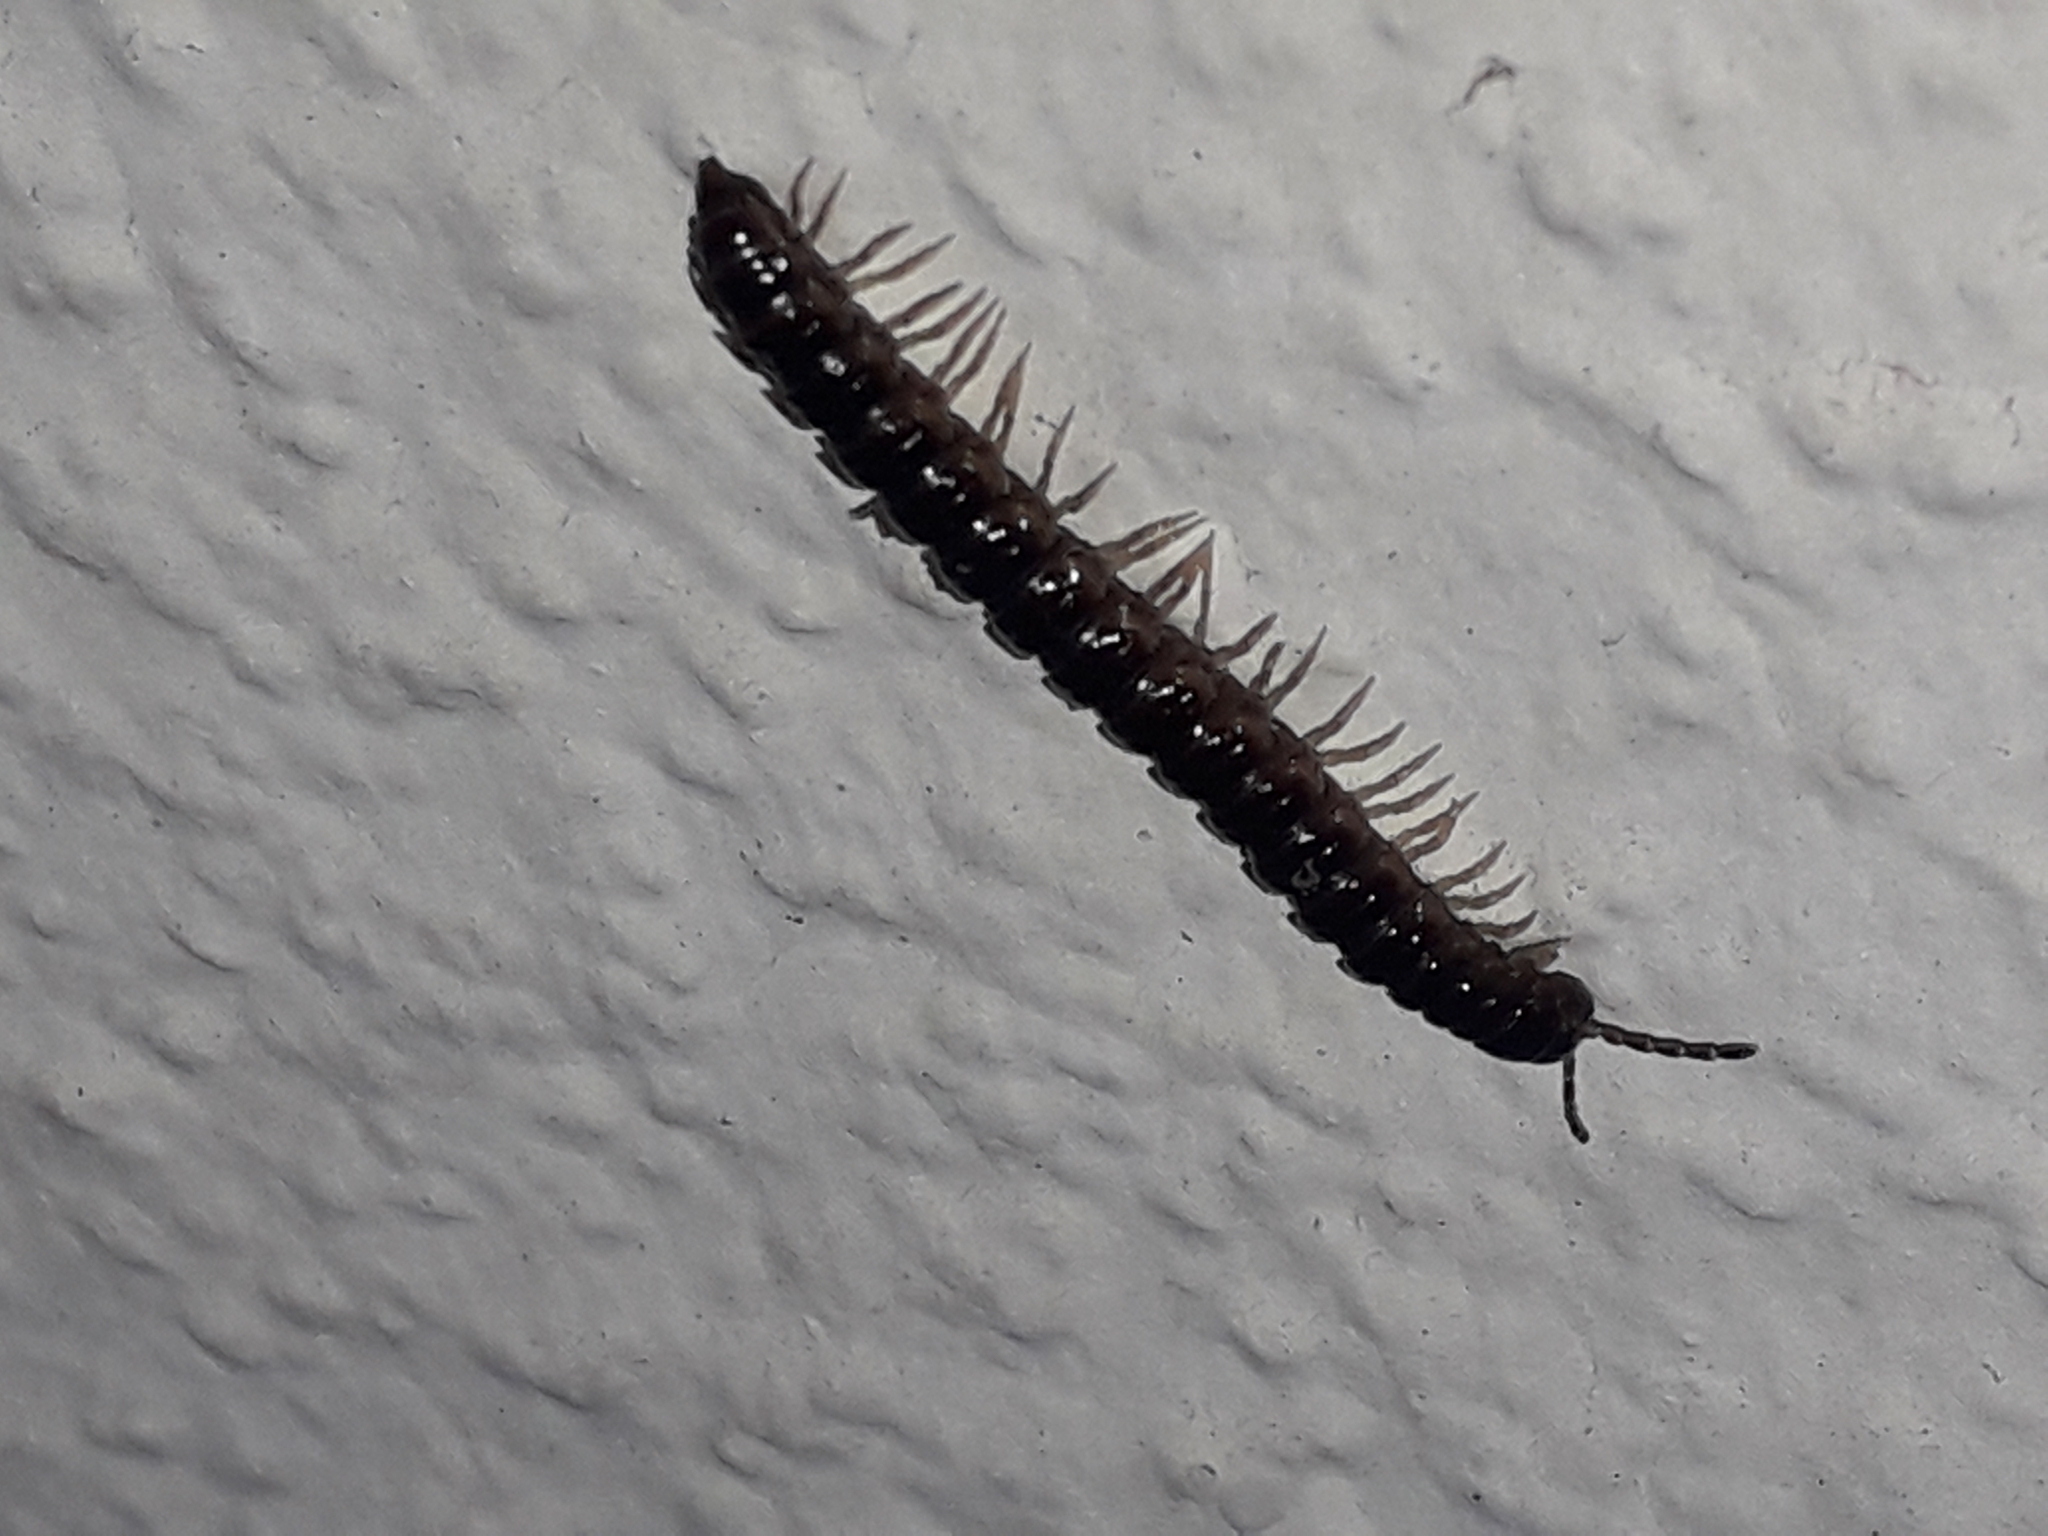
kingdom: Animalia
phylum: Arthropoda
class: Diplopoda
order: Polydesmida
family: Paradoxosomatidae
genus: Oxidus
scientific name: Oxidus gracilis
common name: Greenhouse millipede
